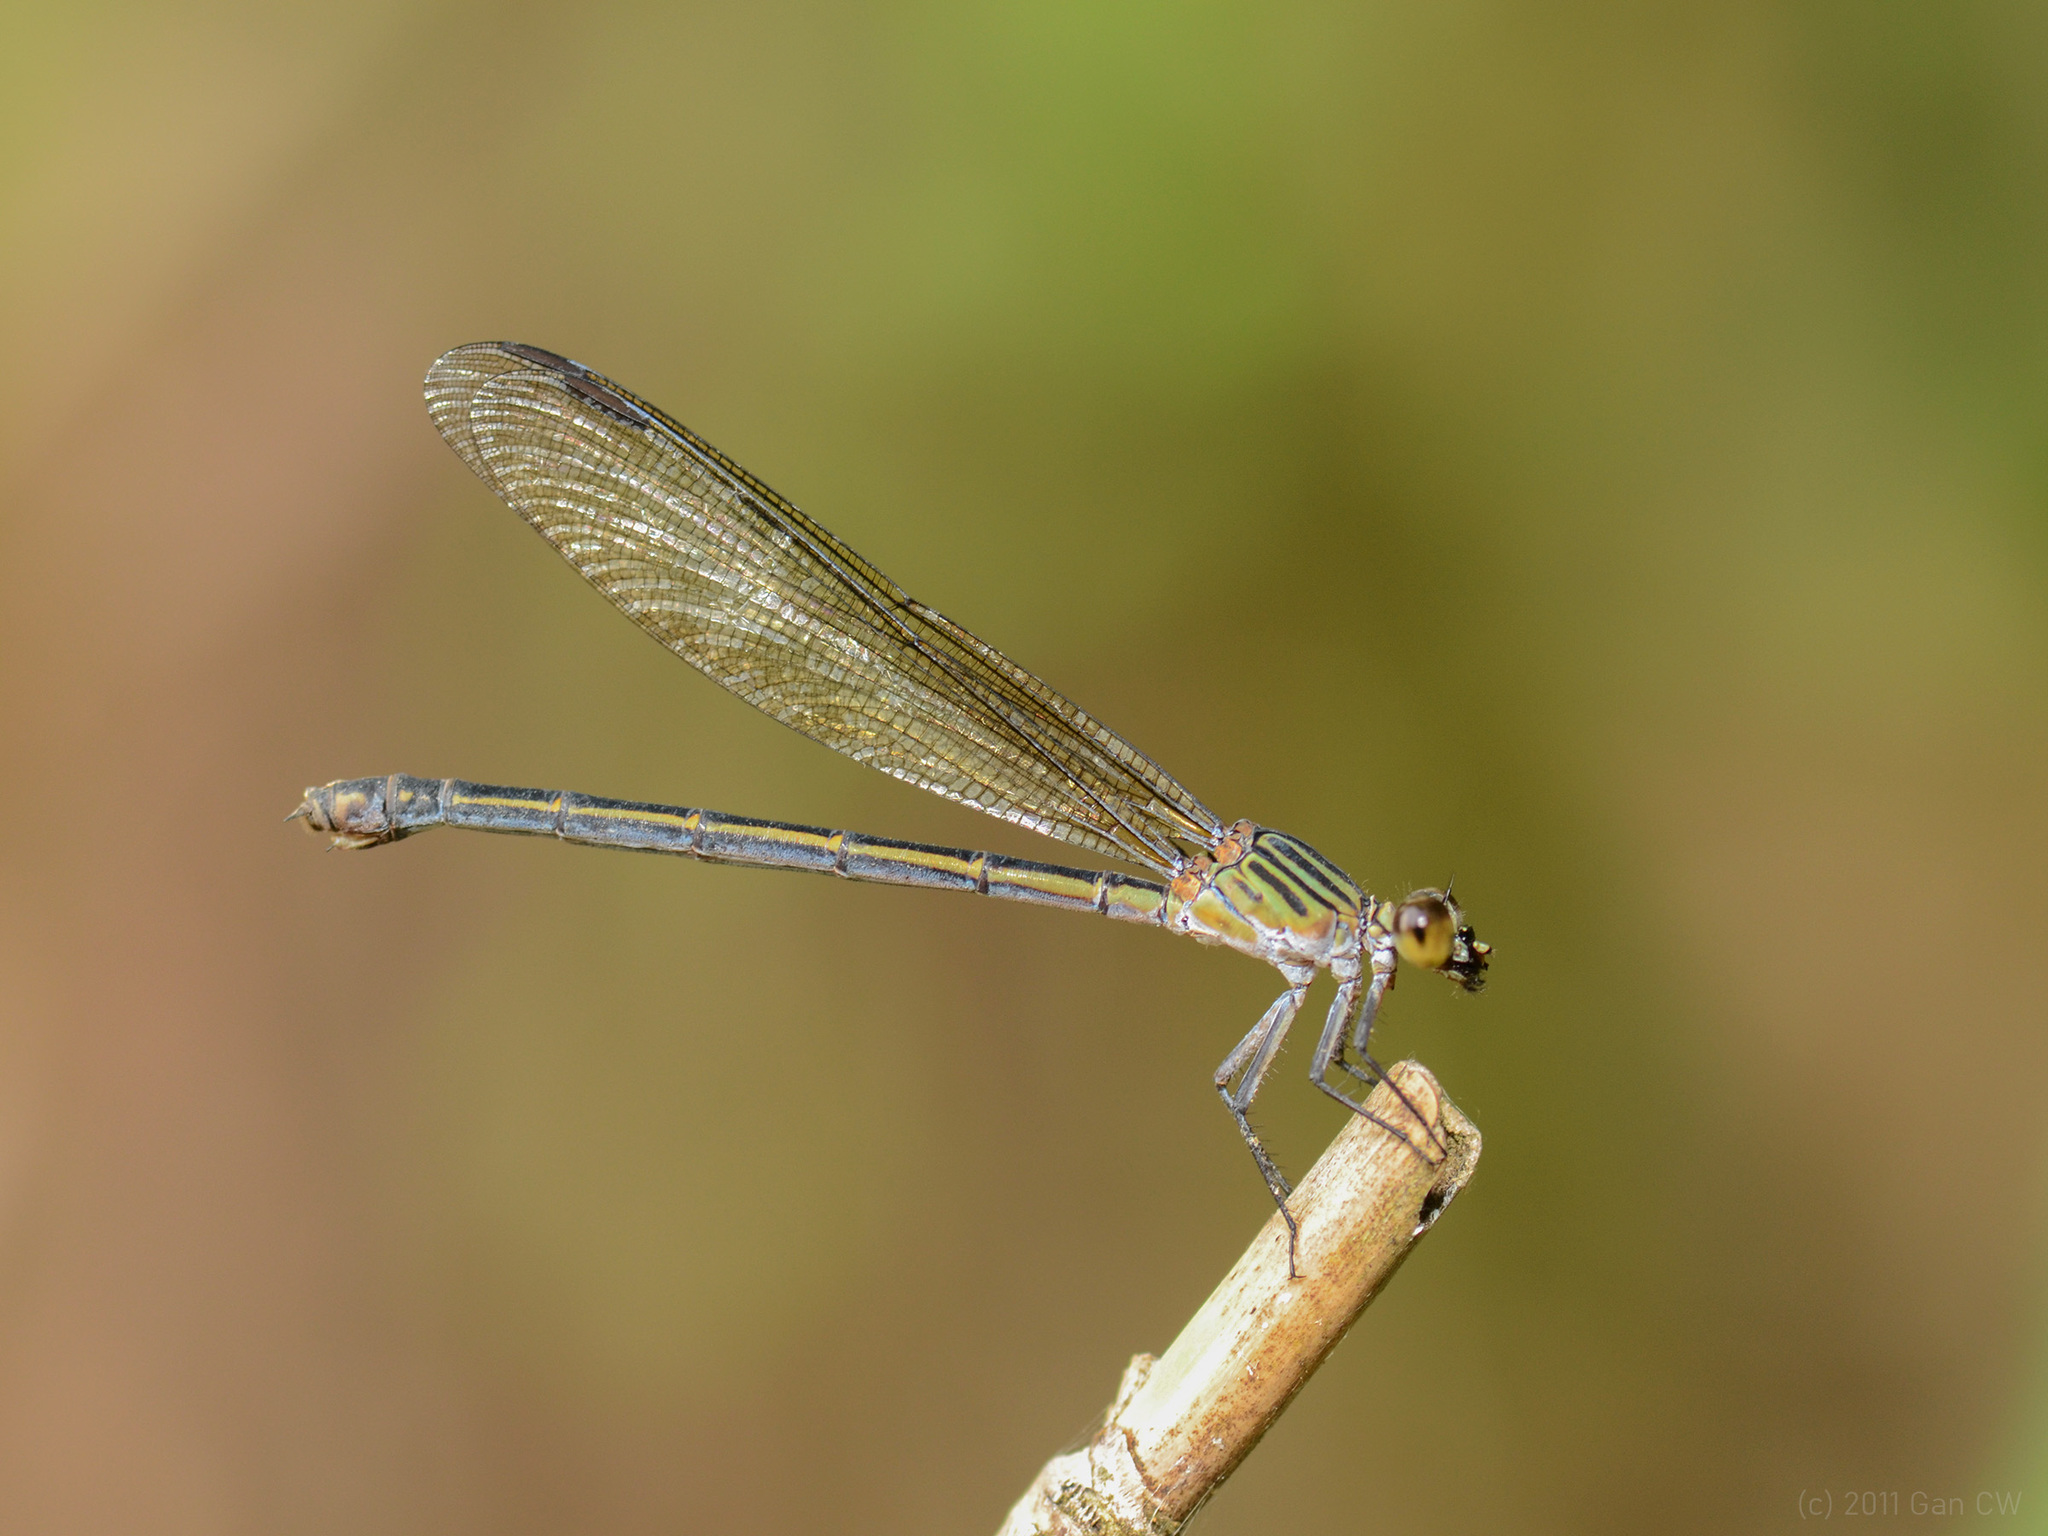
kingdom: Animalia
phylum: Arthropoda
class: Insecta
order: Odonata
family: Euphaeidae
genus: Euphaea
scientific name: Euphaea ochracea
